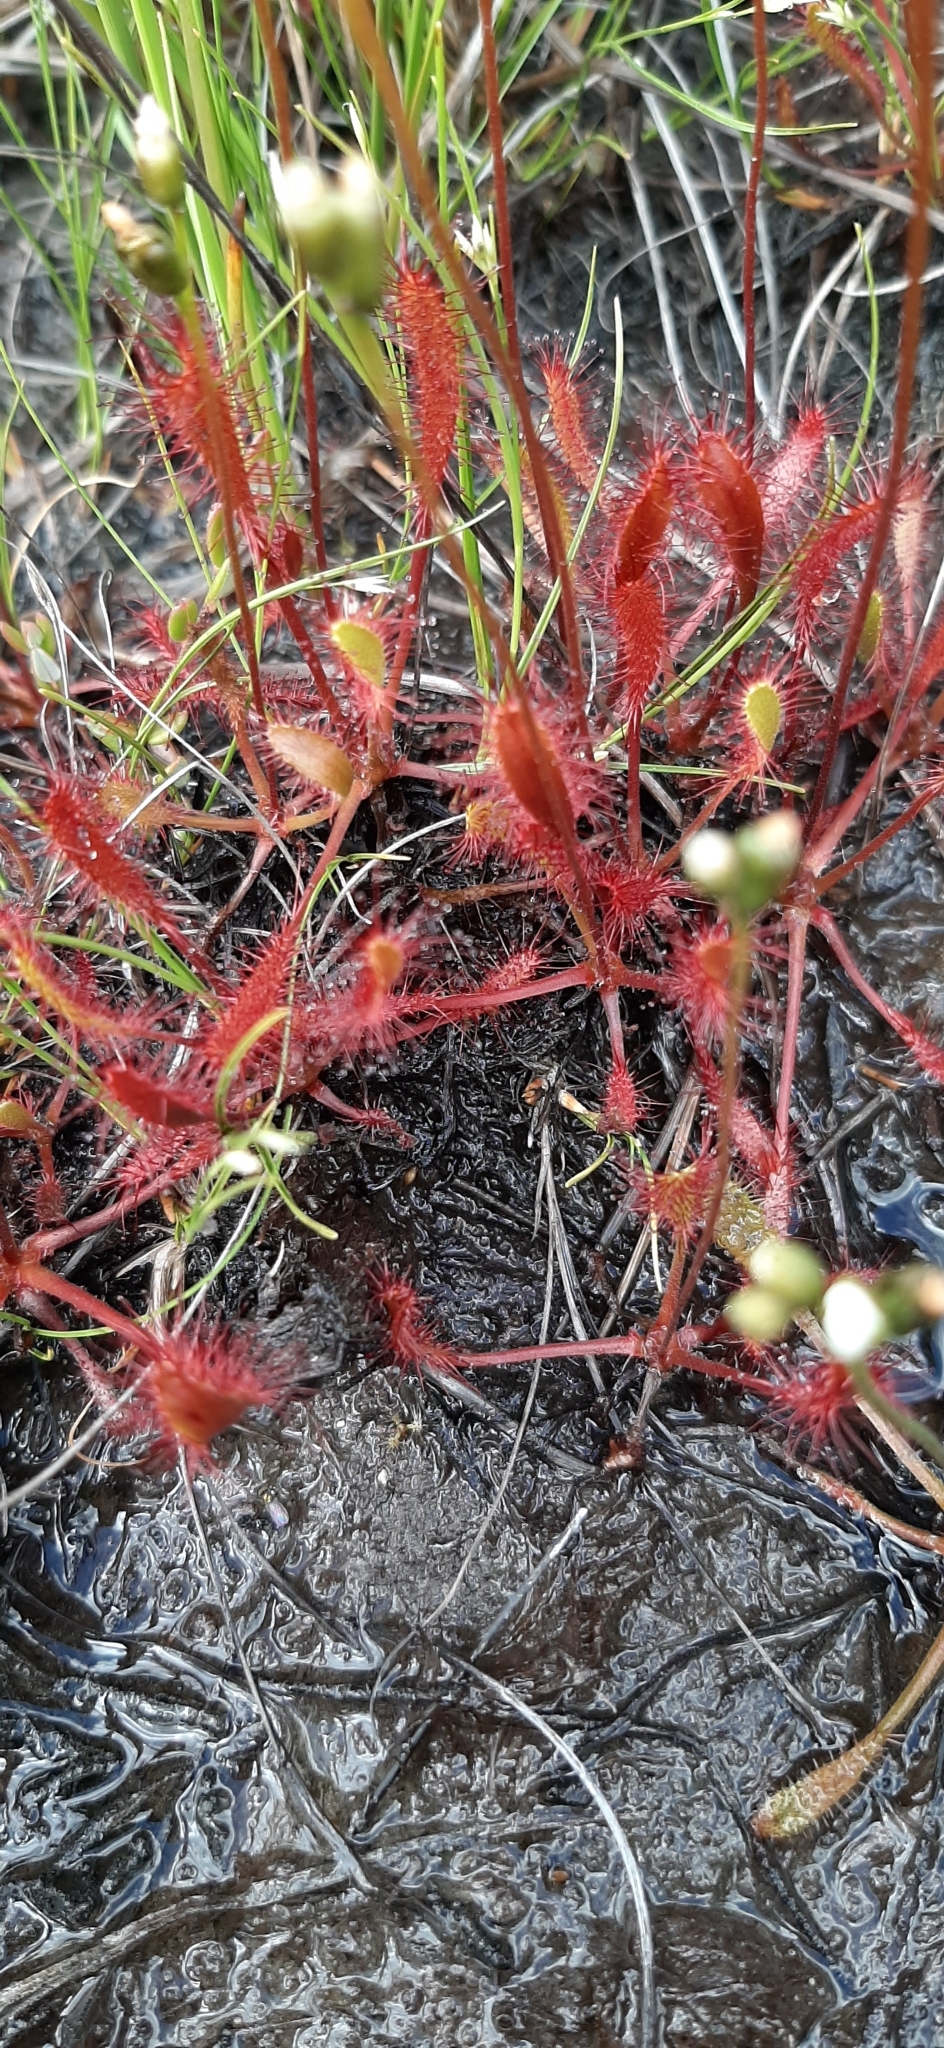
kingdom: Plantae
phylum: Tracheophyta
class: Magnoliopsida
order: Caryophyllales
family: Droseraceae
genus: Drosera
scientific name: Drosera anglica
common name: Great sundew
